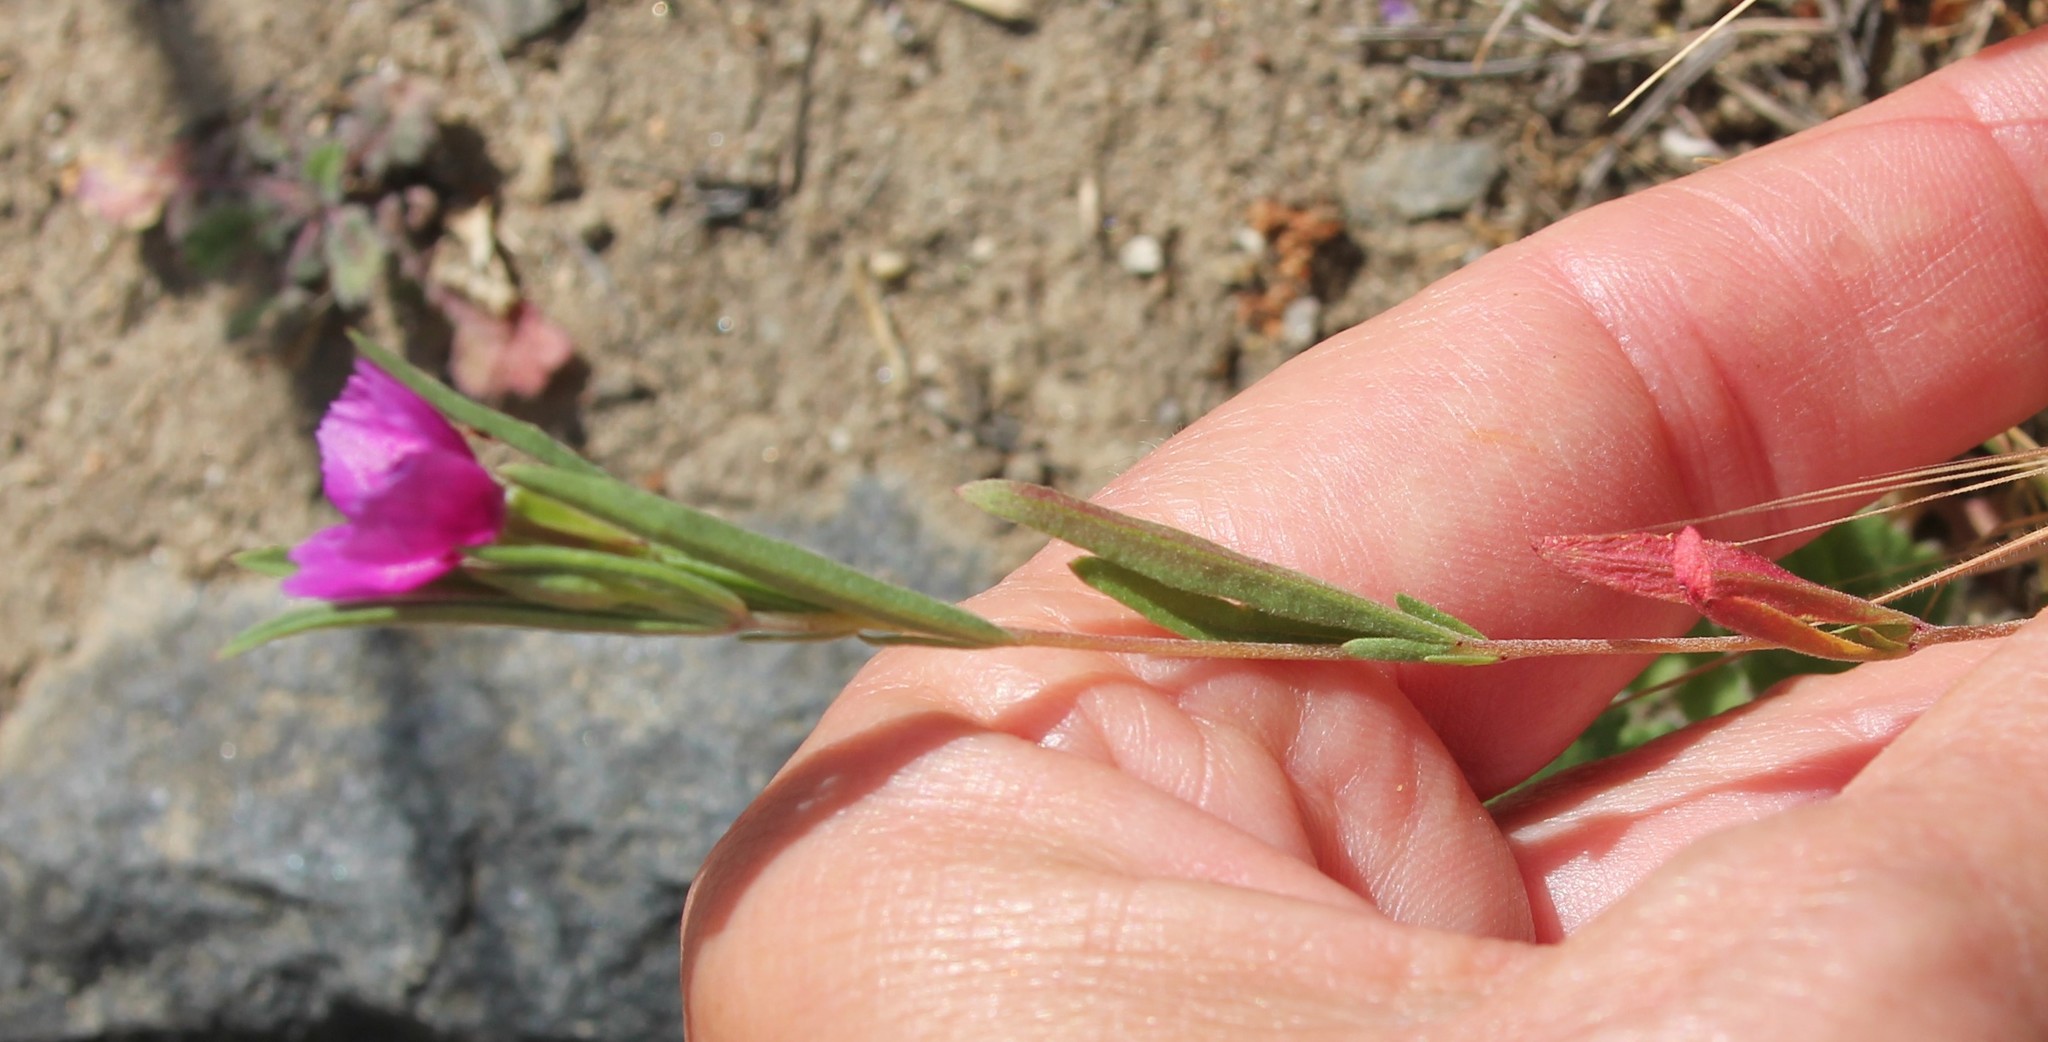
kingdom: Plantae
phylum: Tracheophyta
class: Magnoliopsida
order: Myrtales
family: Onagraceae
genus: Clarkia
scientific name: Clarkia purpurea
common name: Purple clarkia
